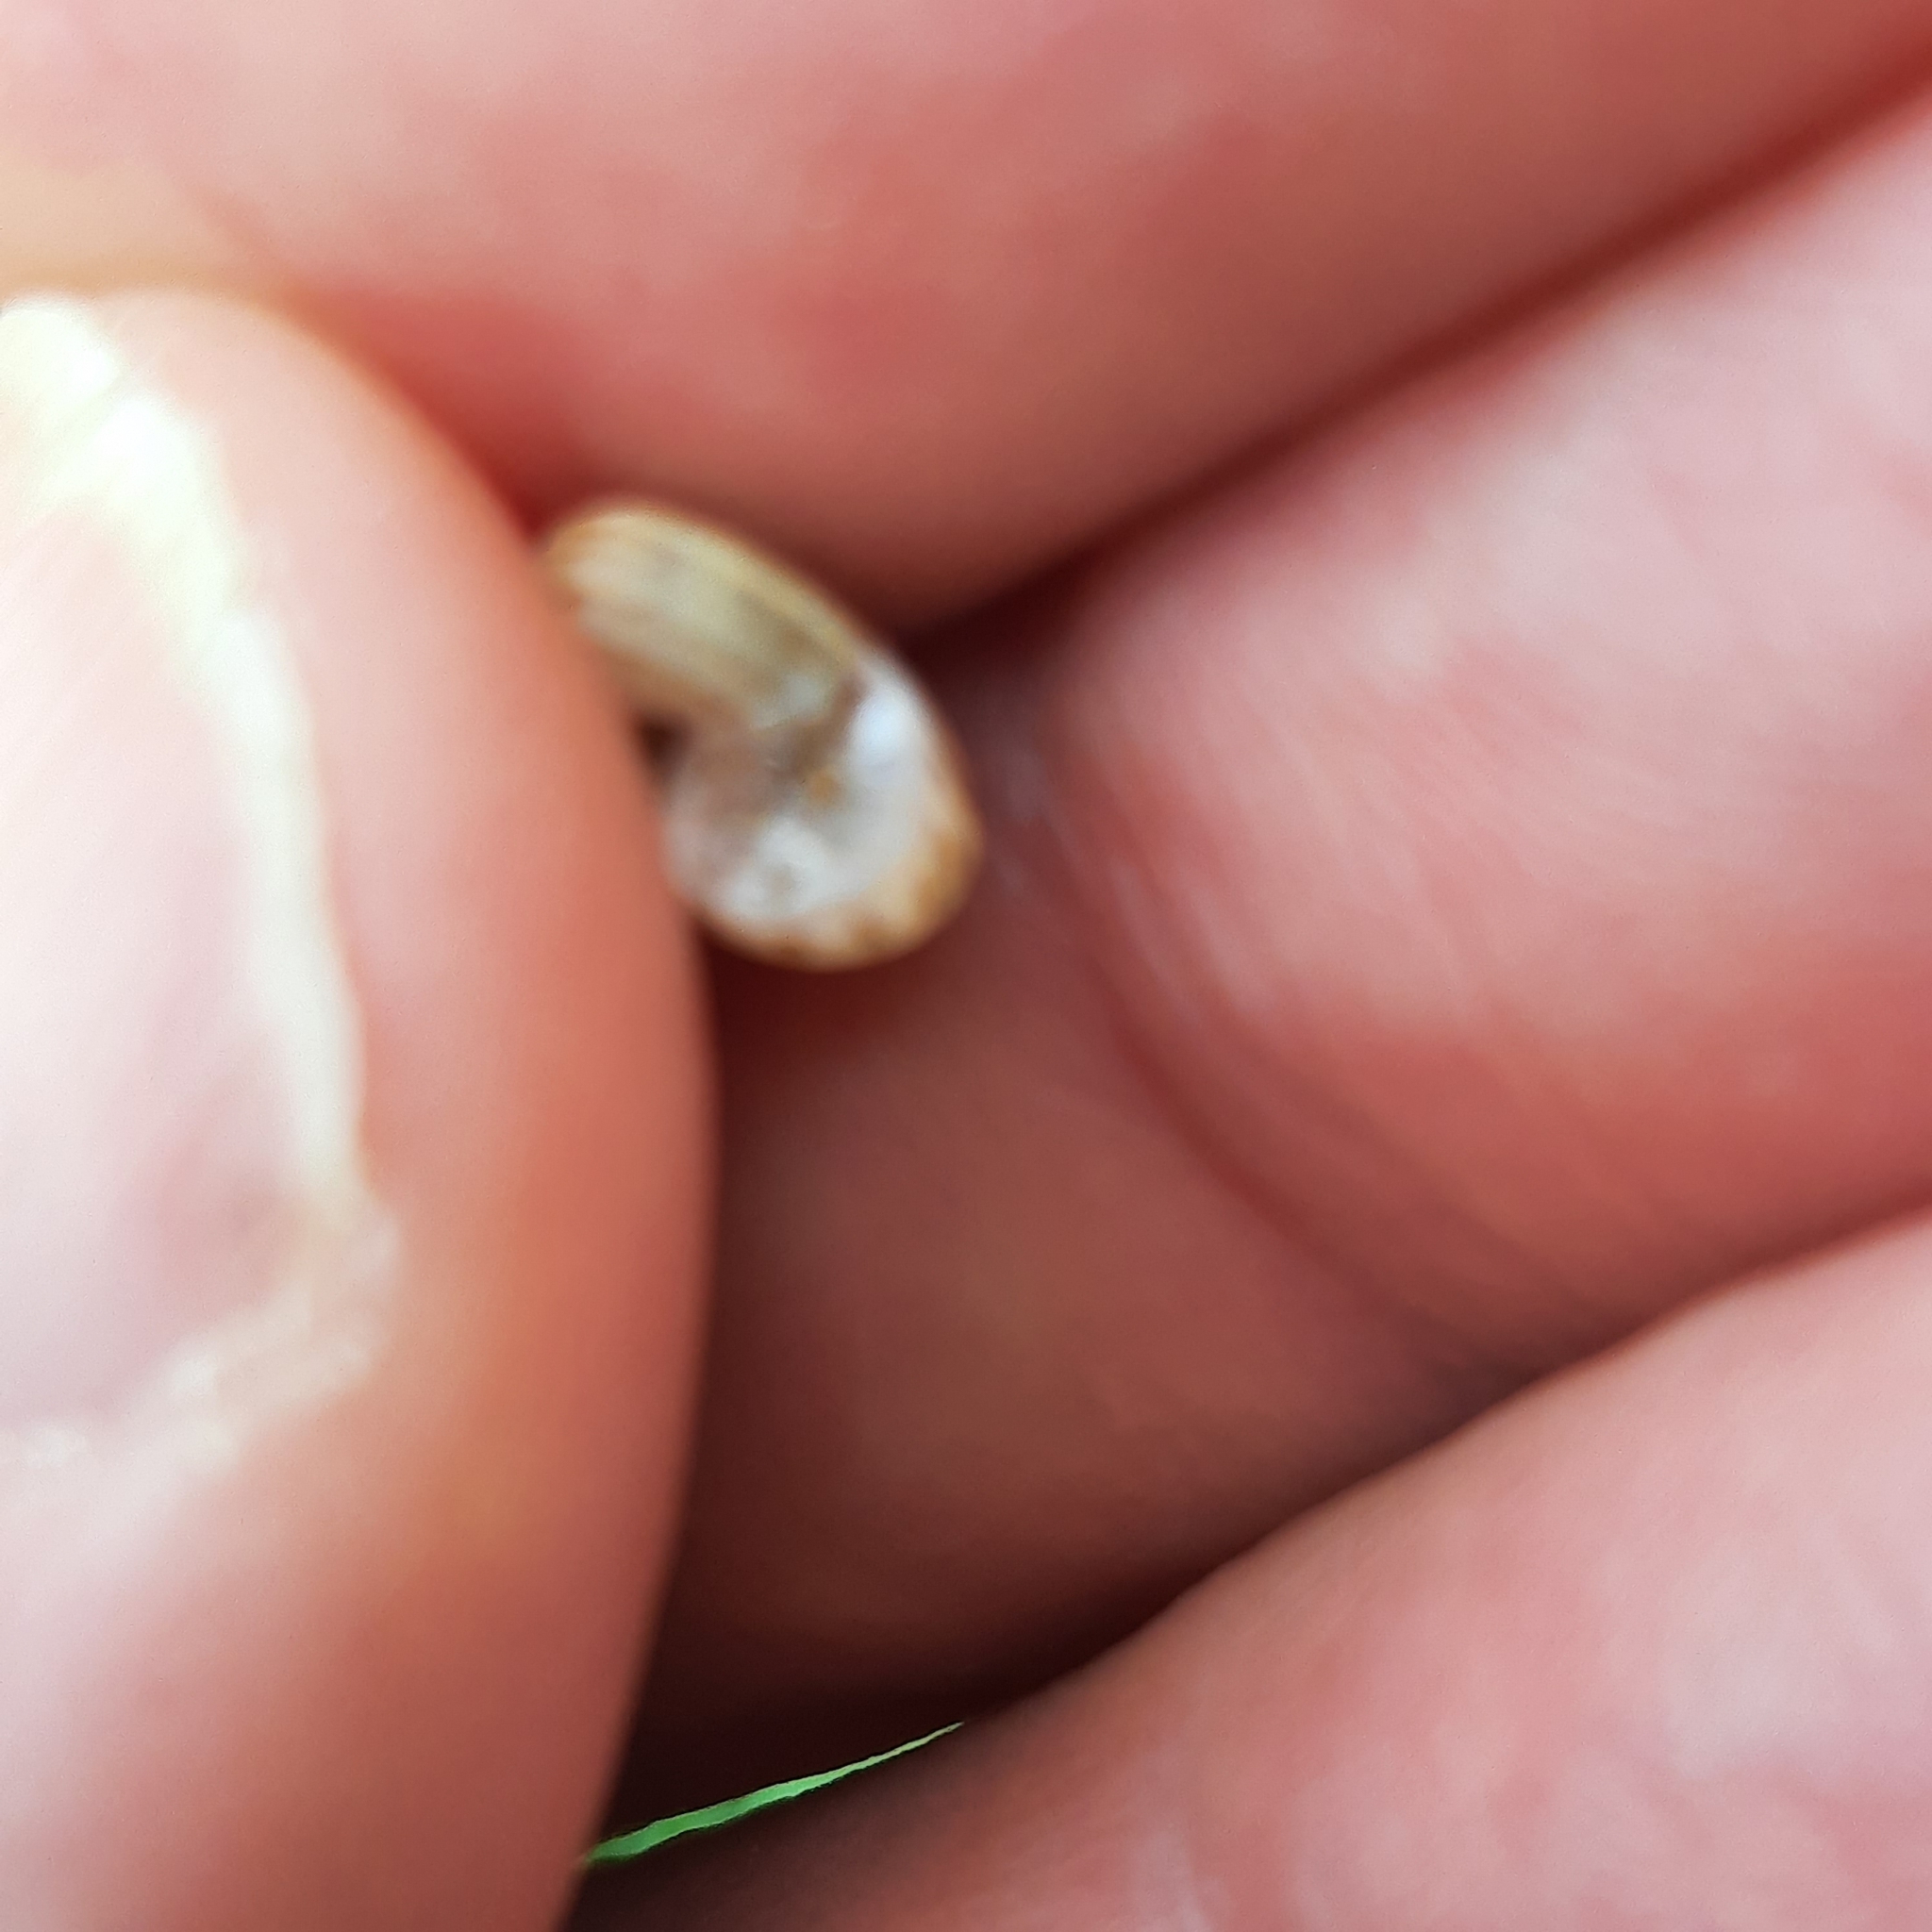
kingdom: Animalia
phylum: Mollusca
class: Gastropoda
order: Stylommatophora
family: Geomitridae
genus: Xerolenta
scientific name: Xerolenta obvia
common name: White heath snail
